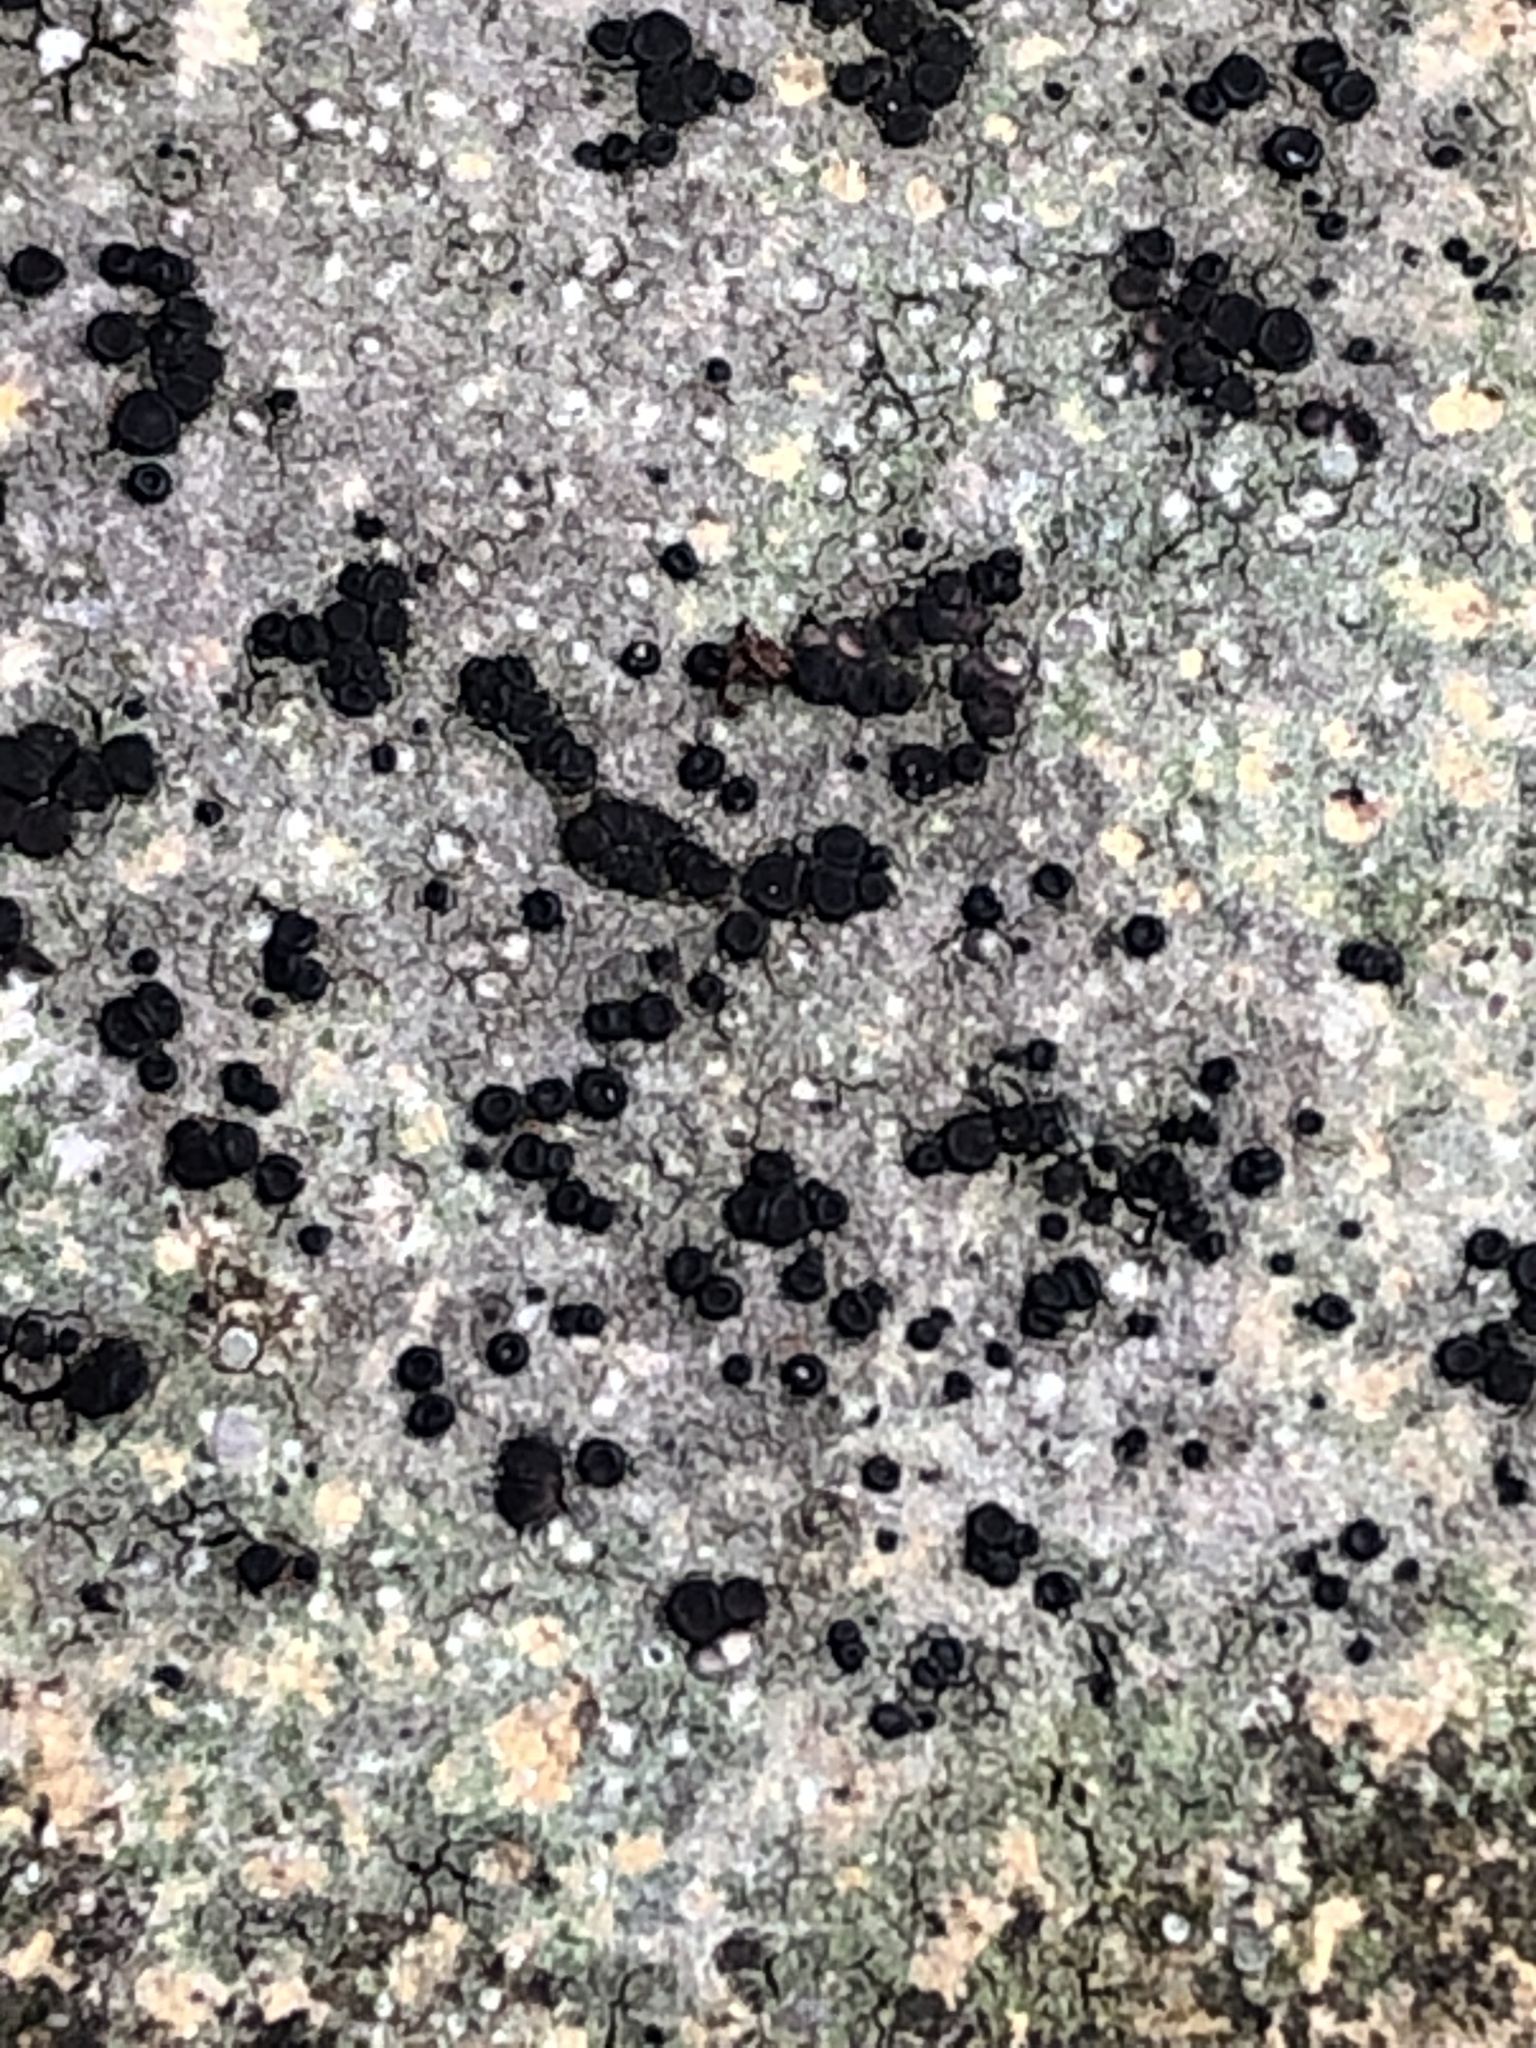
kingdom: Fungi
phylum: Ascomycota
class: Lecanoromycetes
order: Lecanorales
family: Lecanoraceae
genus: Lecidella
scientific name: Lecidella stigmatea
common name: Limestone disc lichen
